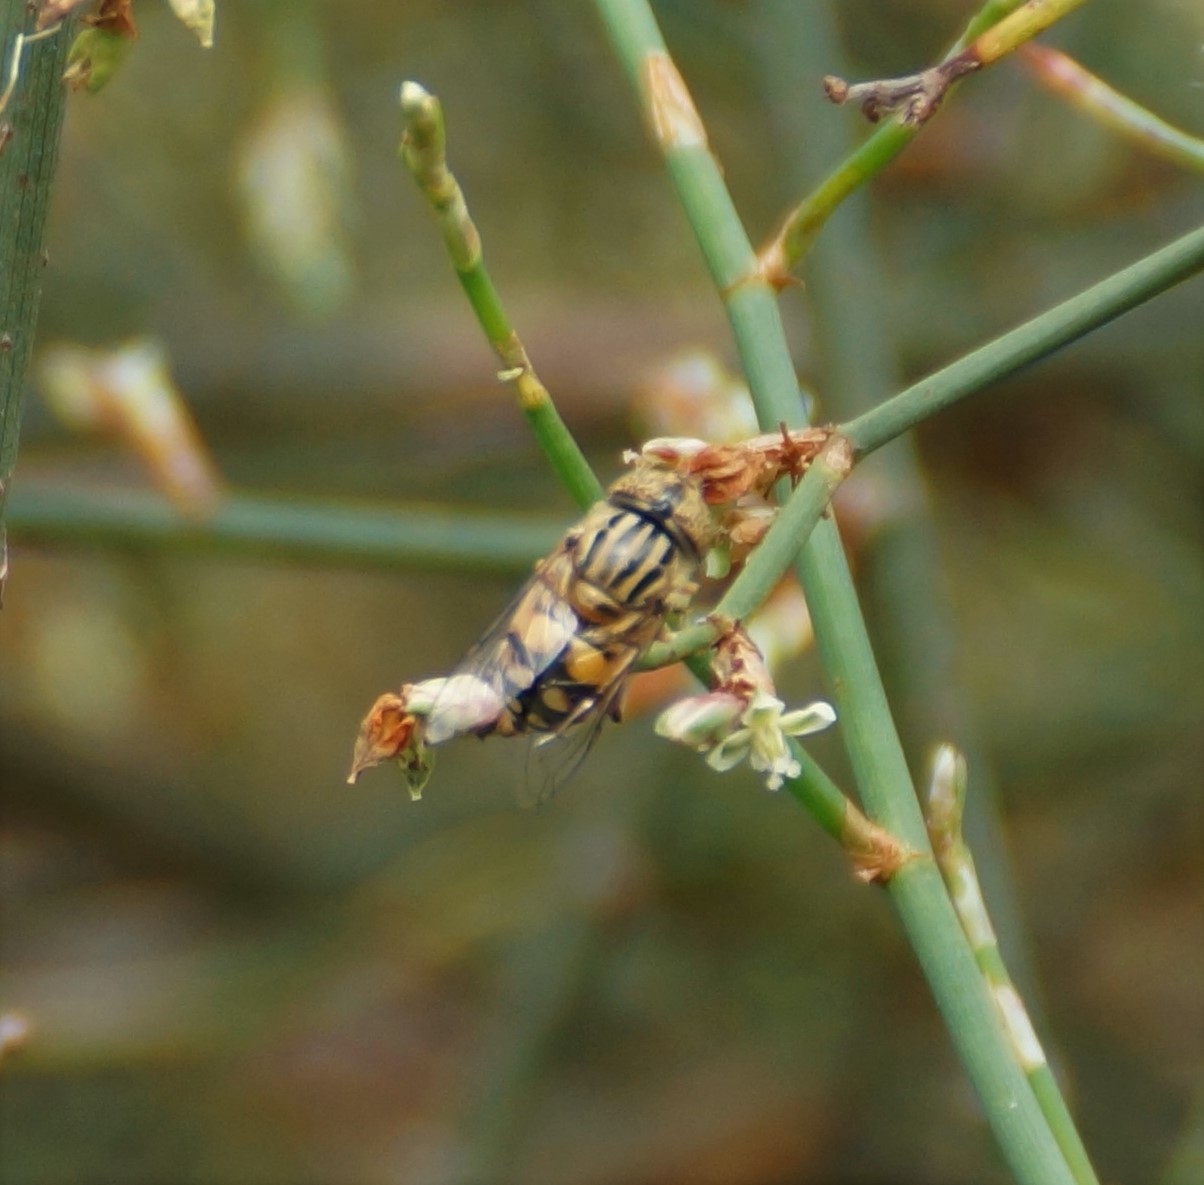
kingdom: Animalia
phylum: Arthropoda
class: Insecta
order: Diptera
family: Syrphidae
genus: Eristalinus
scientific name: Eristalinus punctulatus
